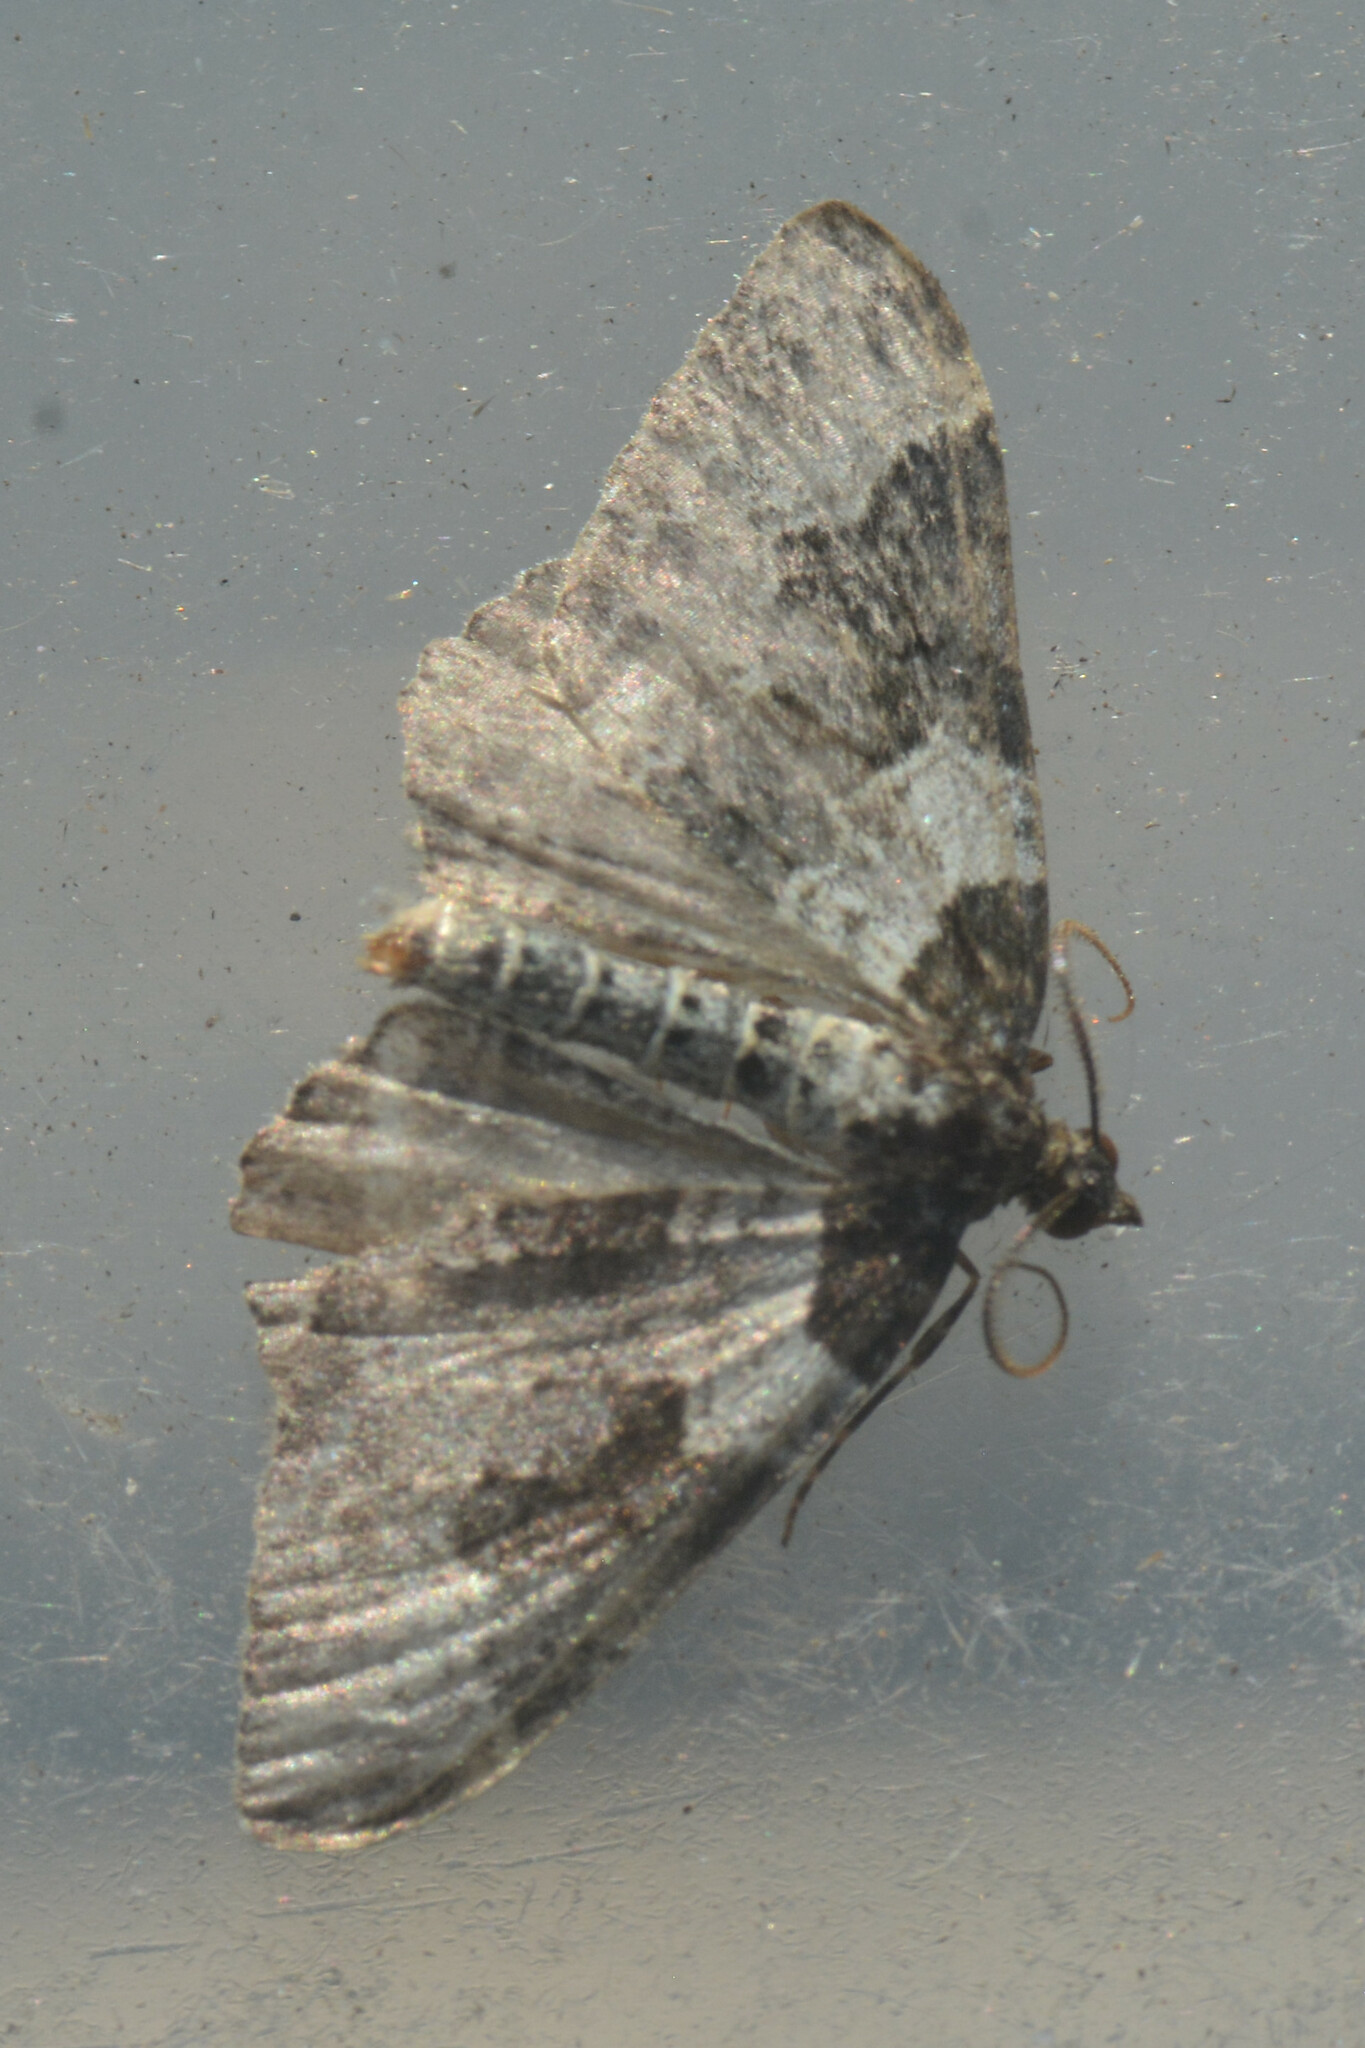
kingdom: Animalia
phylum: Arthropoda
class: Insecta
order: Lepidoptera
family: Geometridae
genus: Xanthorhoe
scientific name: Xanthorhoe fluctuata
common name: Garden carpet
